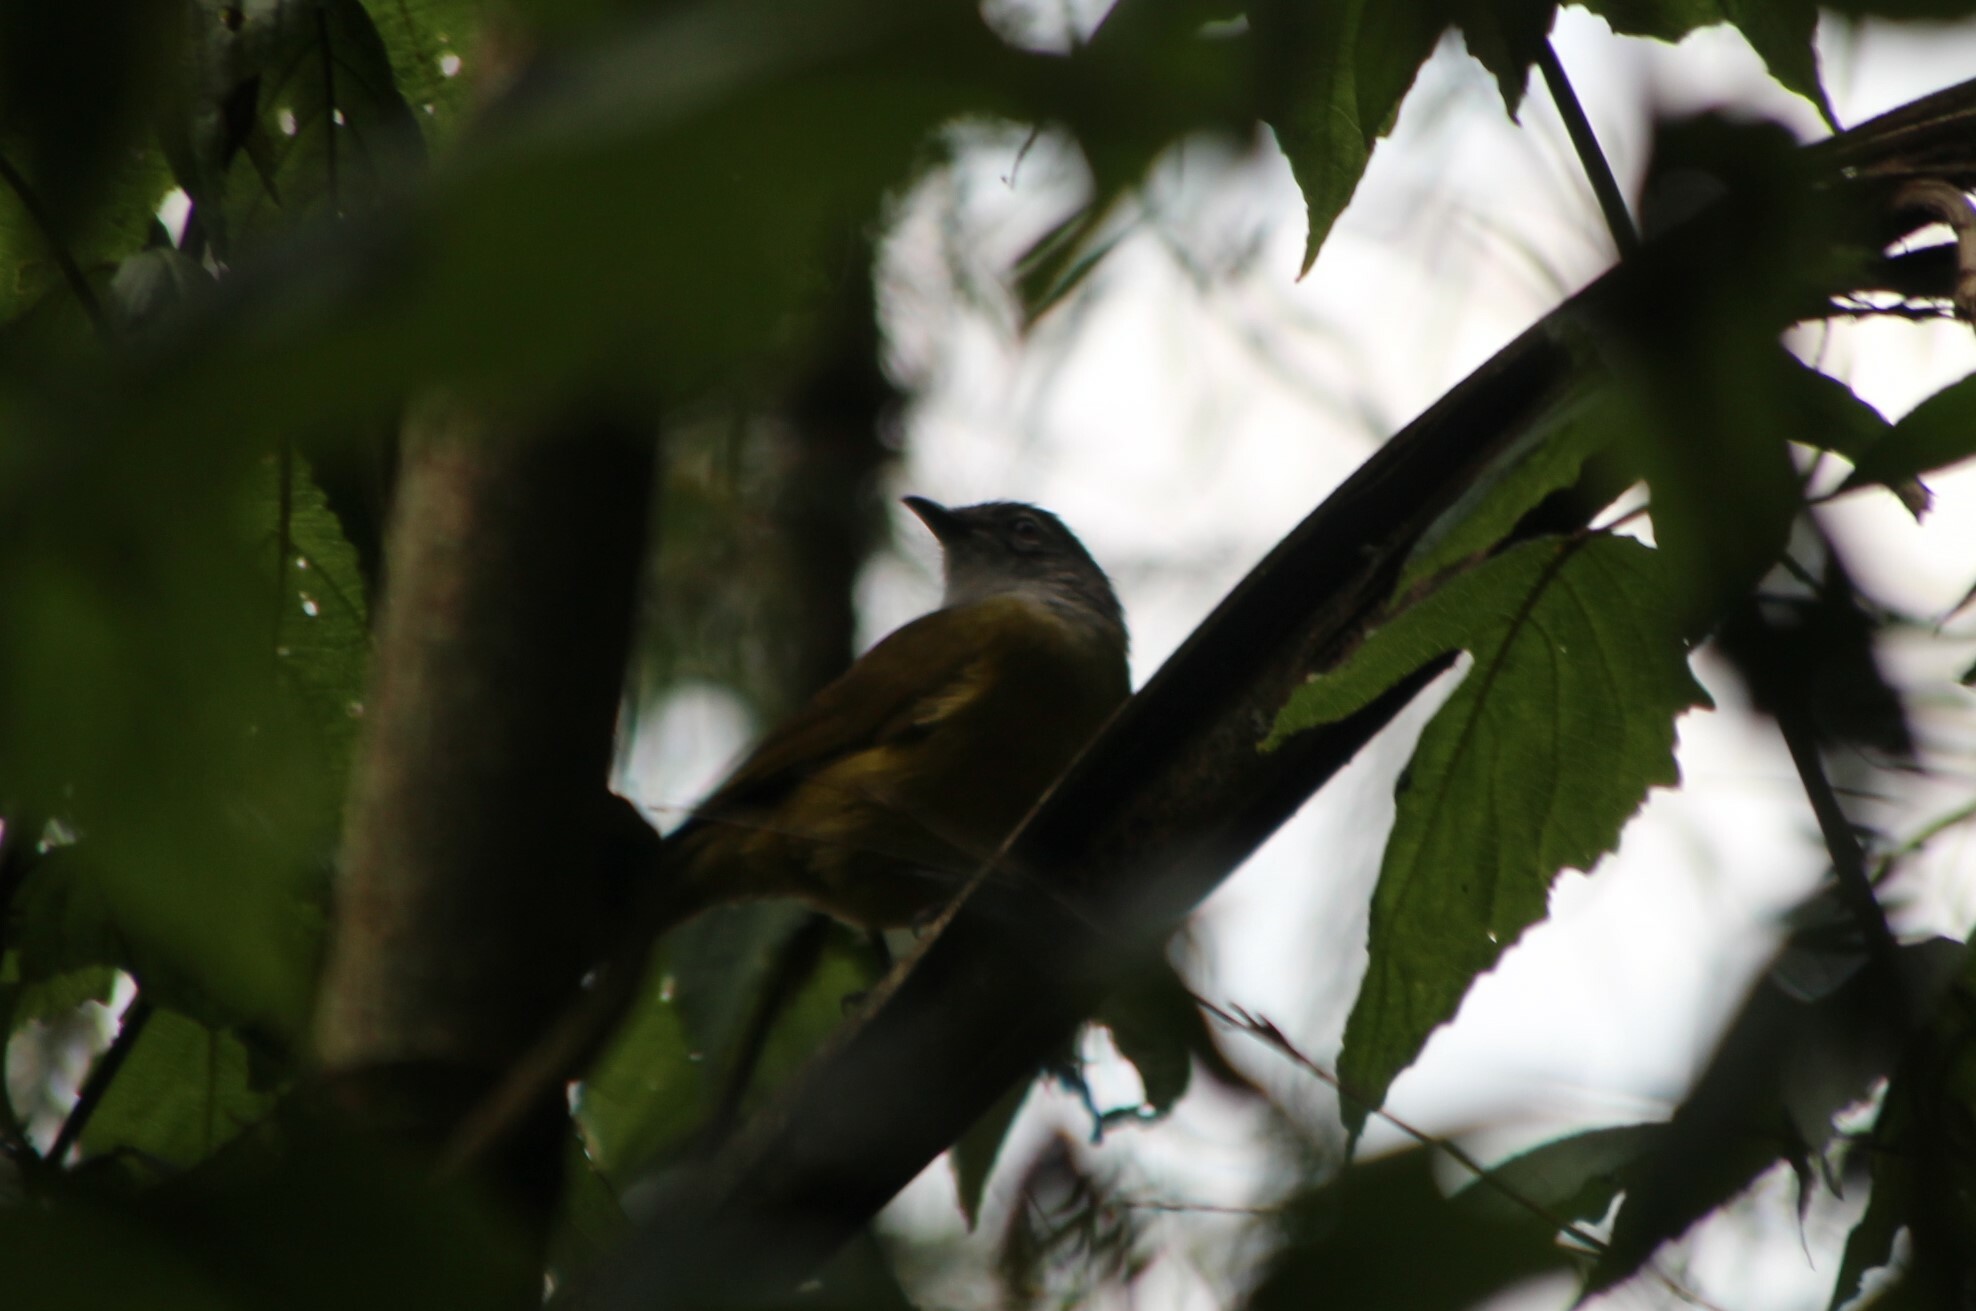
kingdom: Animalia
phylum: Chordata
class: Aves
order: Passeriformes
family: Pycnonotidae
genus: Arizelocichla
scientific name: Arizelocichla nigriceps
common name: Mountain greenbul
